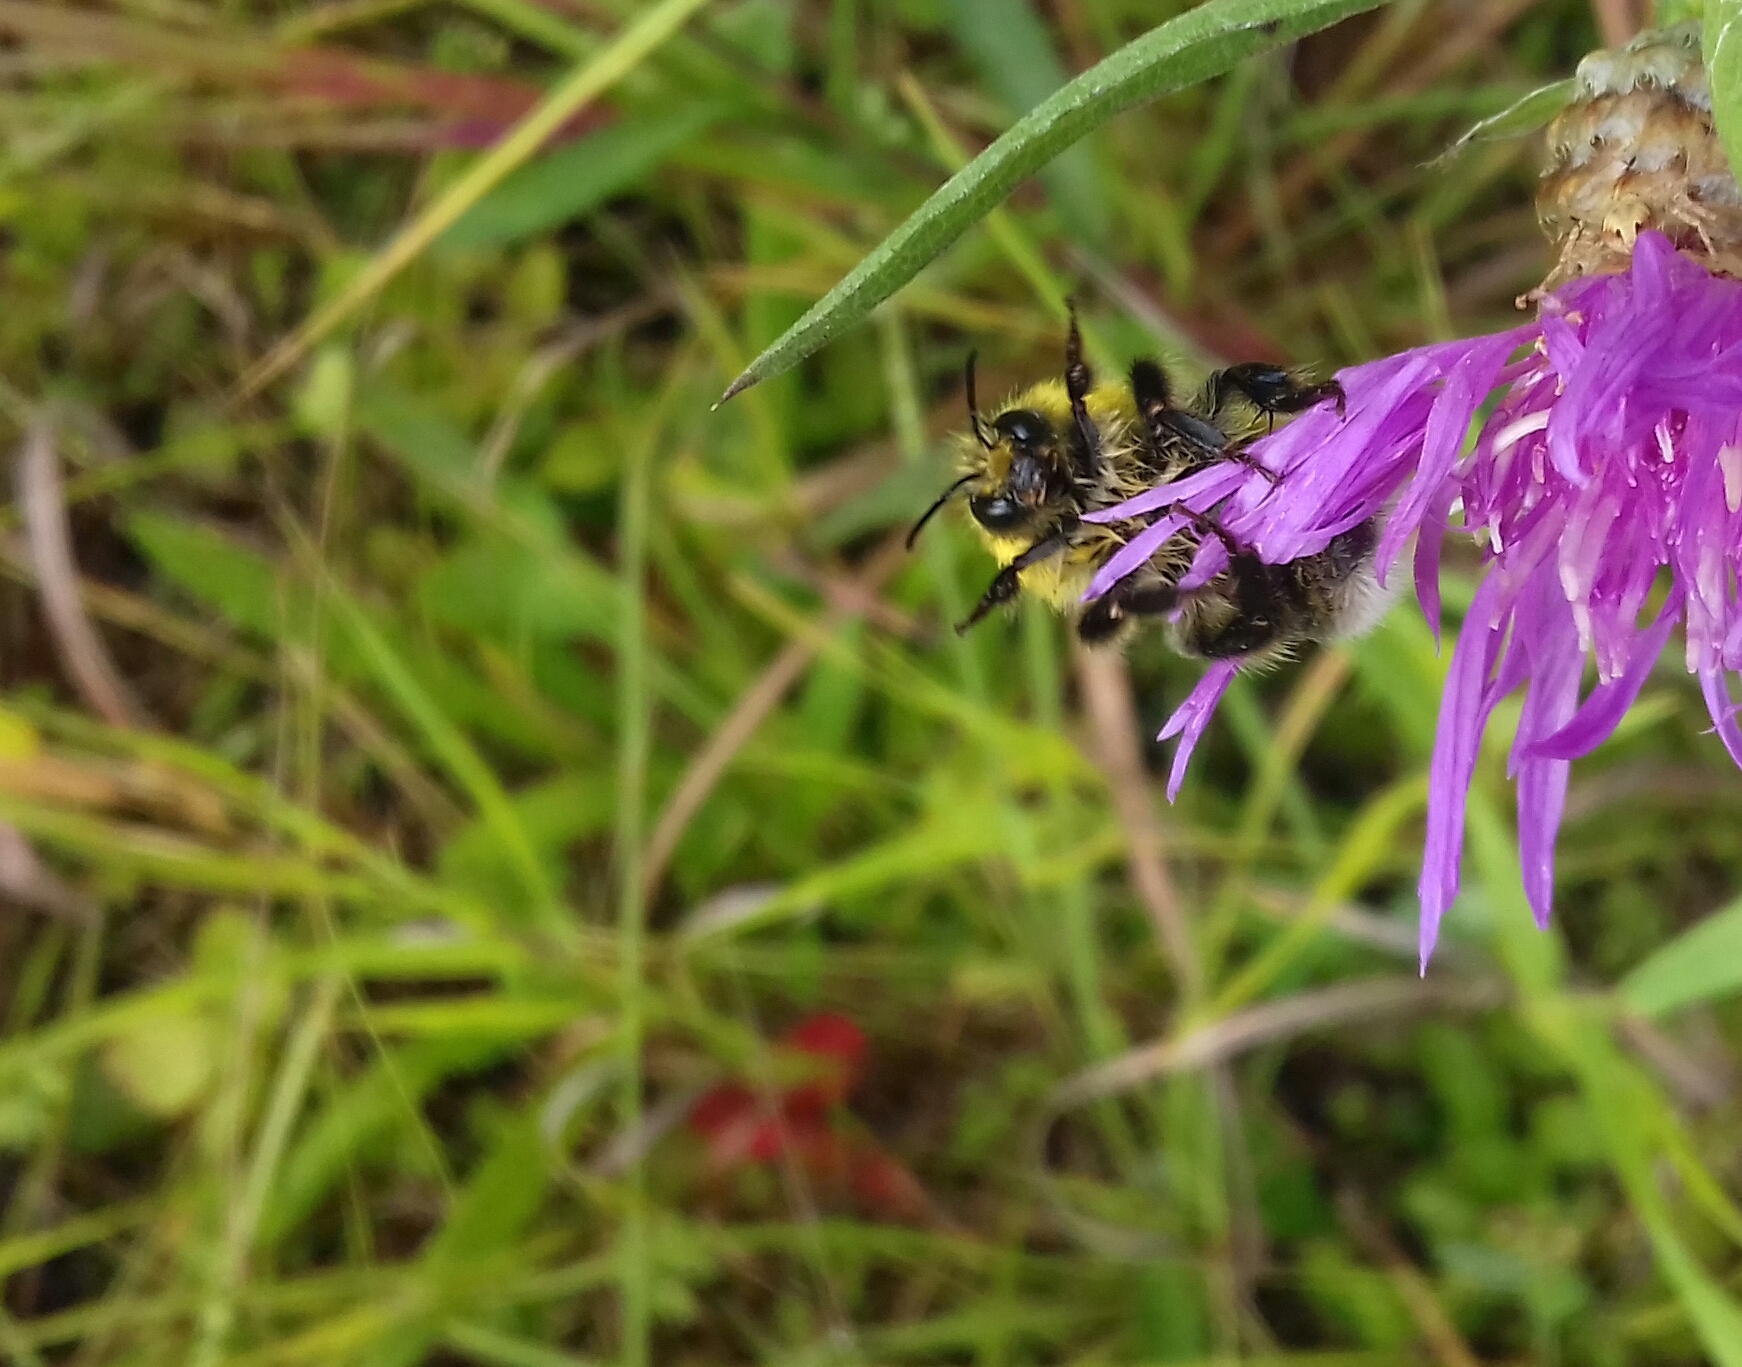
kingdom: Animalia
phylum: Arthropoda
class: Insecta
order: Hymenoptera
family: Apidae
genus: Bombus
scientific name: Bombus lucorum
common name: White-tailed bumblebee
